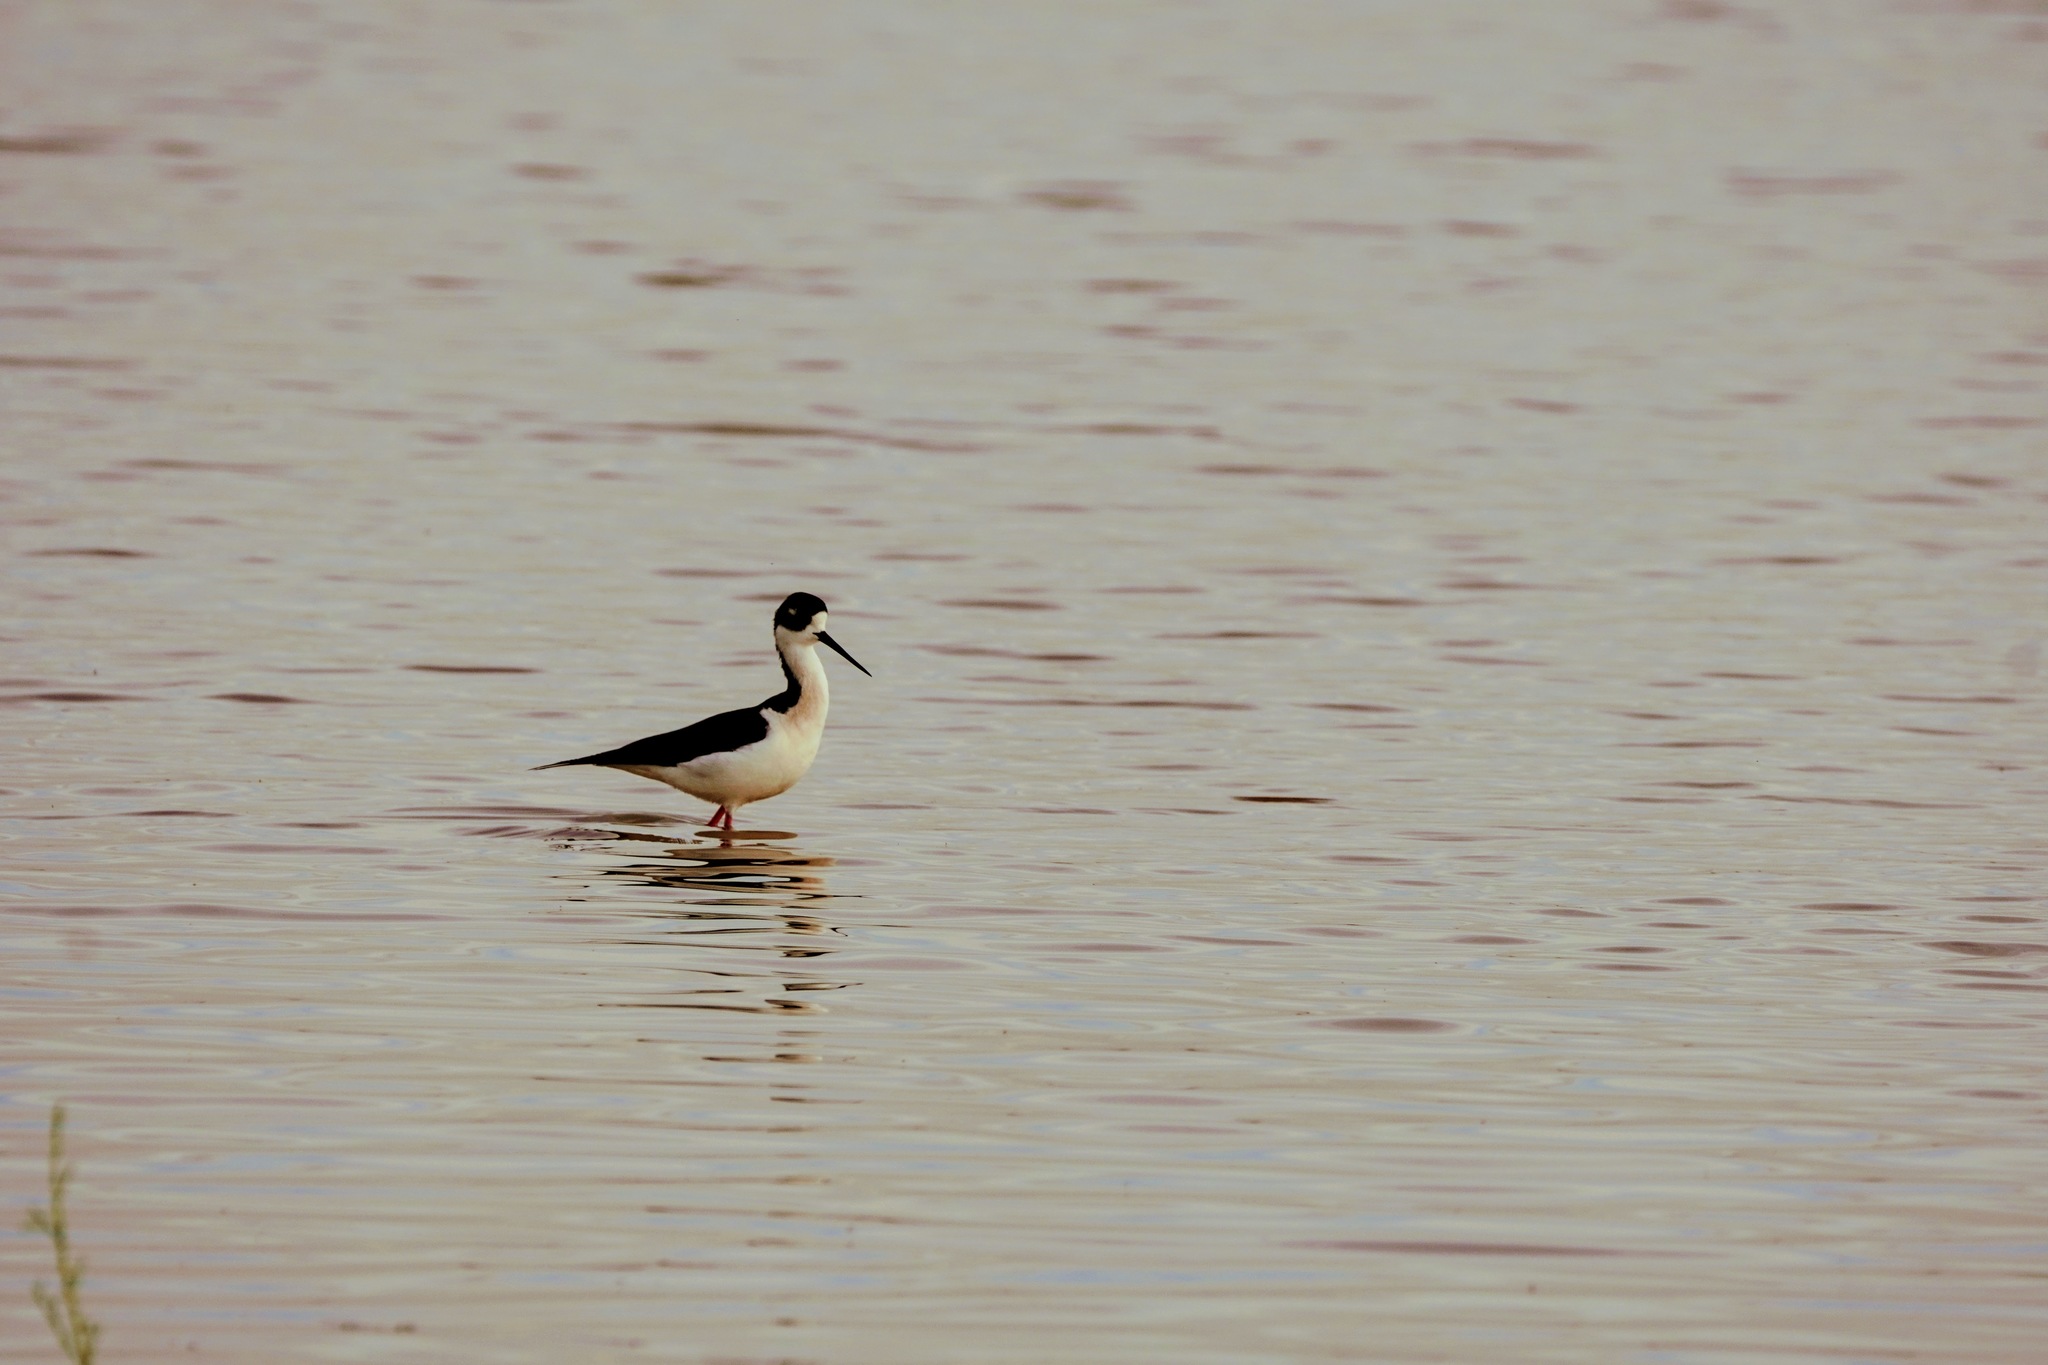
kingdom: Animalia
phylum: Chordata
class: Aves
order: Charadriiformes
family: Recurvirostridae
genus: Himantopus
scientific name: Himantopus mexicanus
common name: Black-necked stilt
